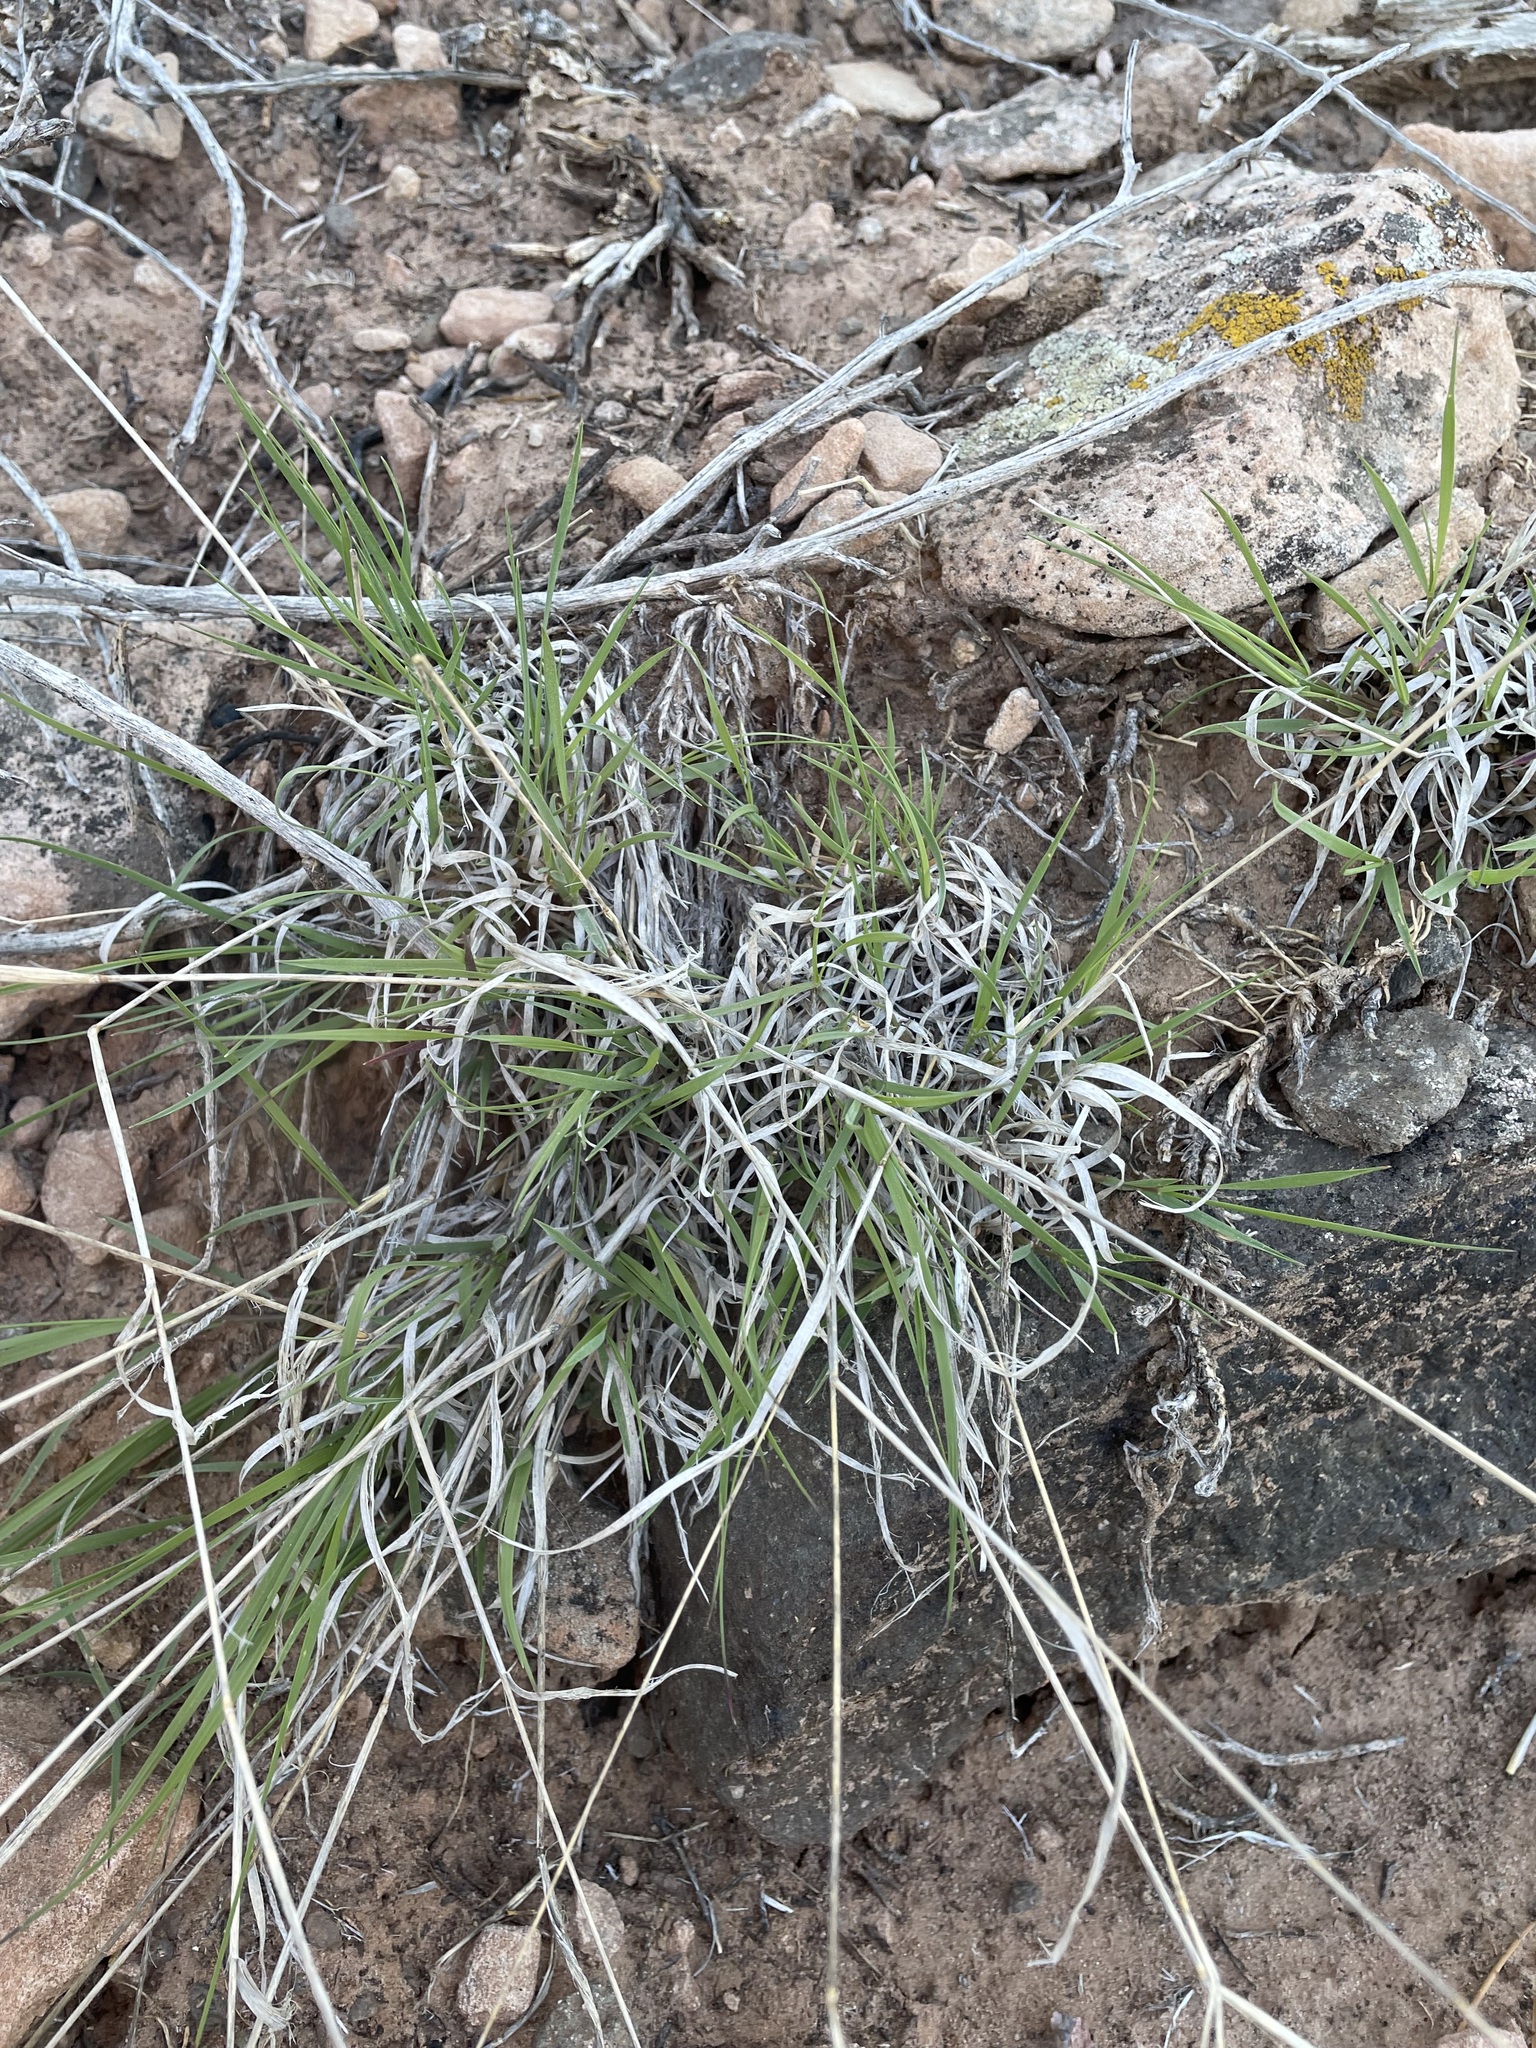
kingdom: Plantae
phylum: Tracheophyta
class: Liliopsida
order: Poales
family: Poaceae
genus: Bouteloua
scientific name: Bouteloua gracilis
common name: Blue grama
